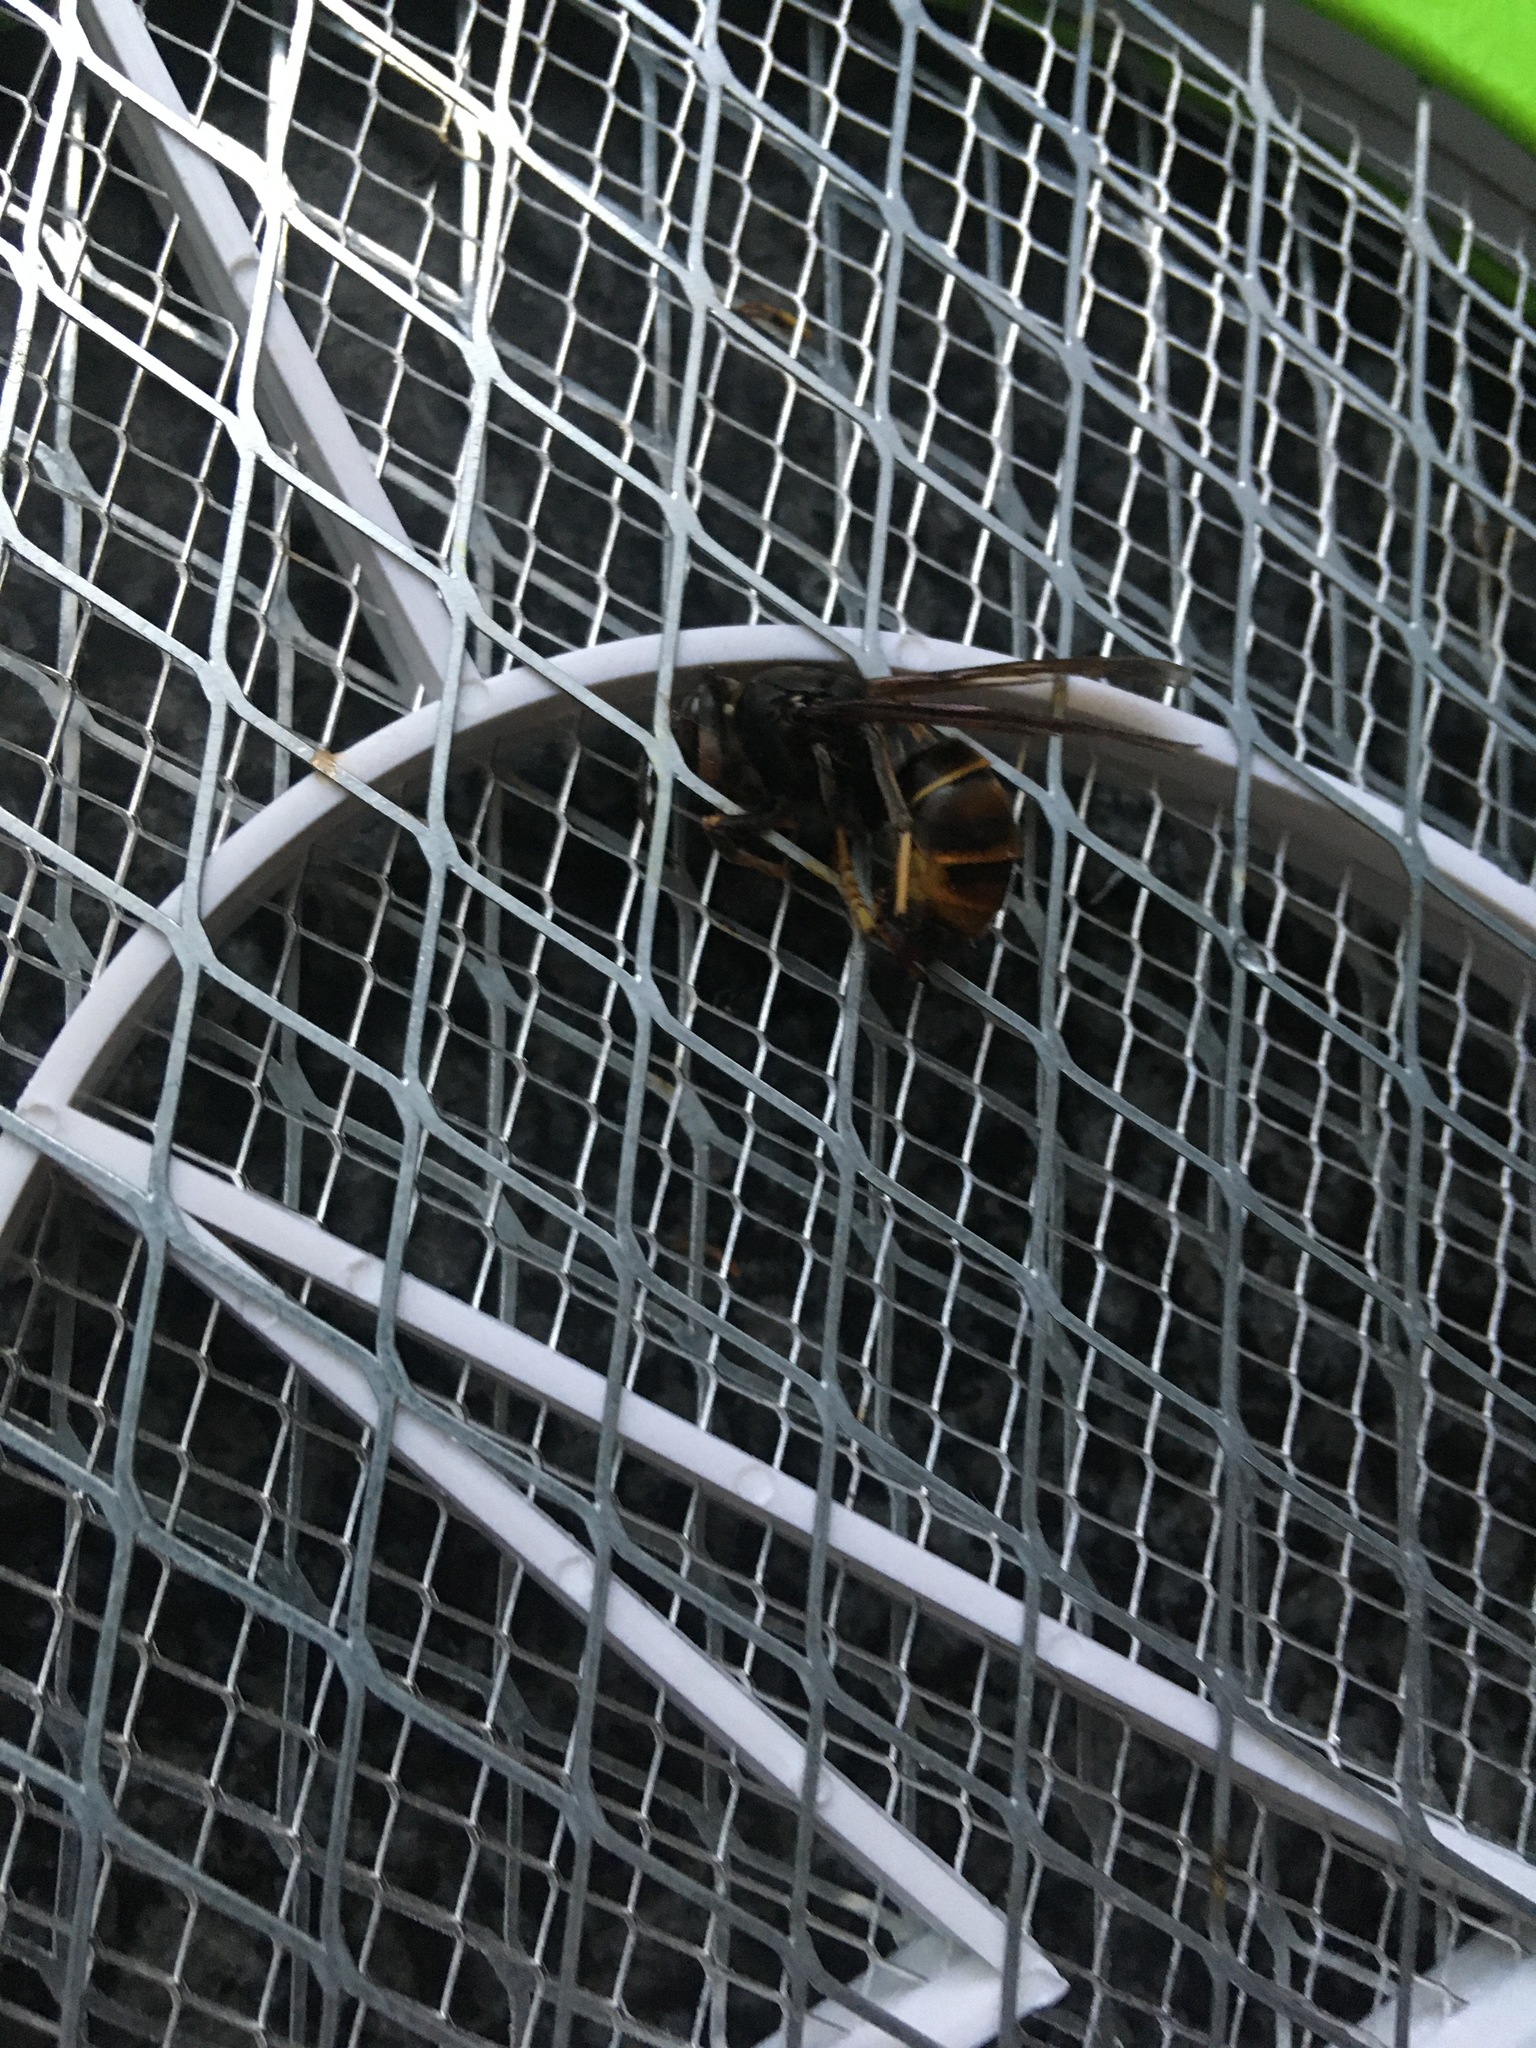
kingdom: Animalia
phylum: Arthropoda
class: Insecta
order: Hymenoptera
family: Vespidae
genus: Vespa
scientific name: Vespa velutina
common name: Asian hornet
